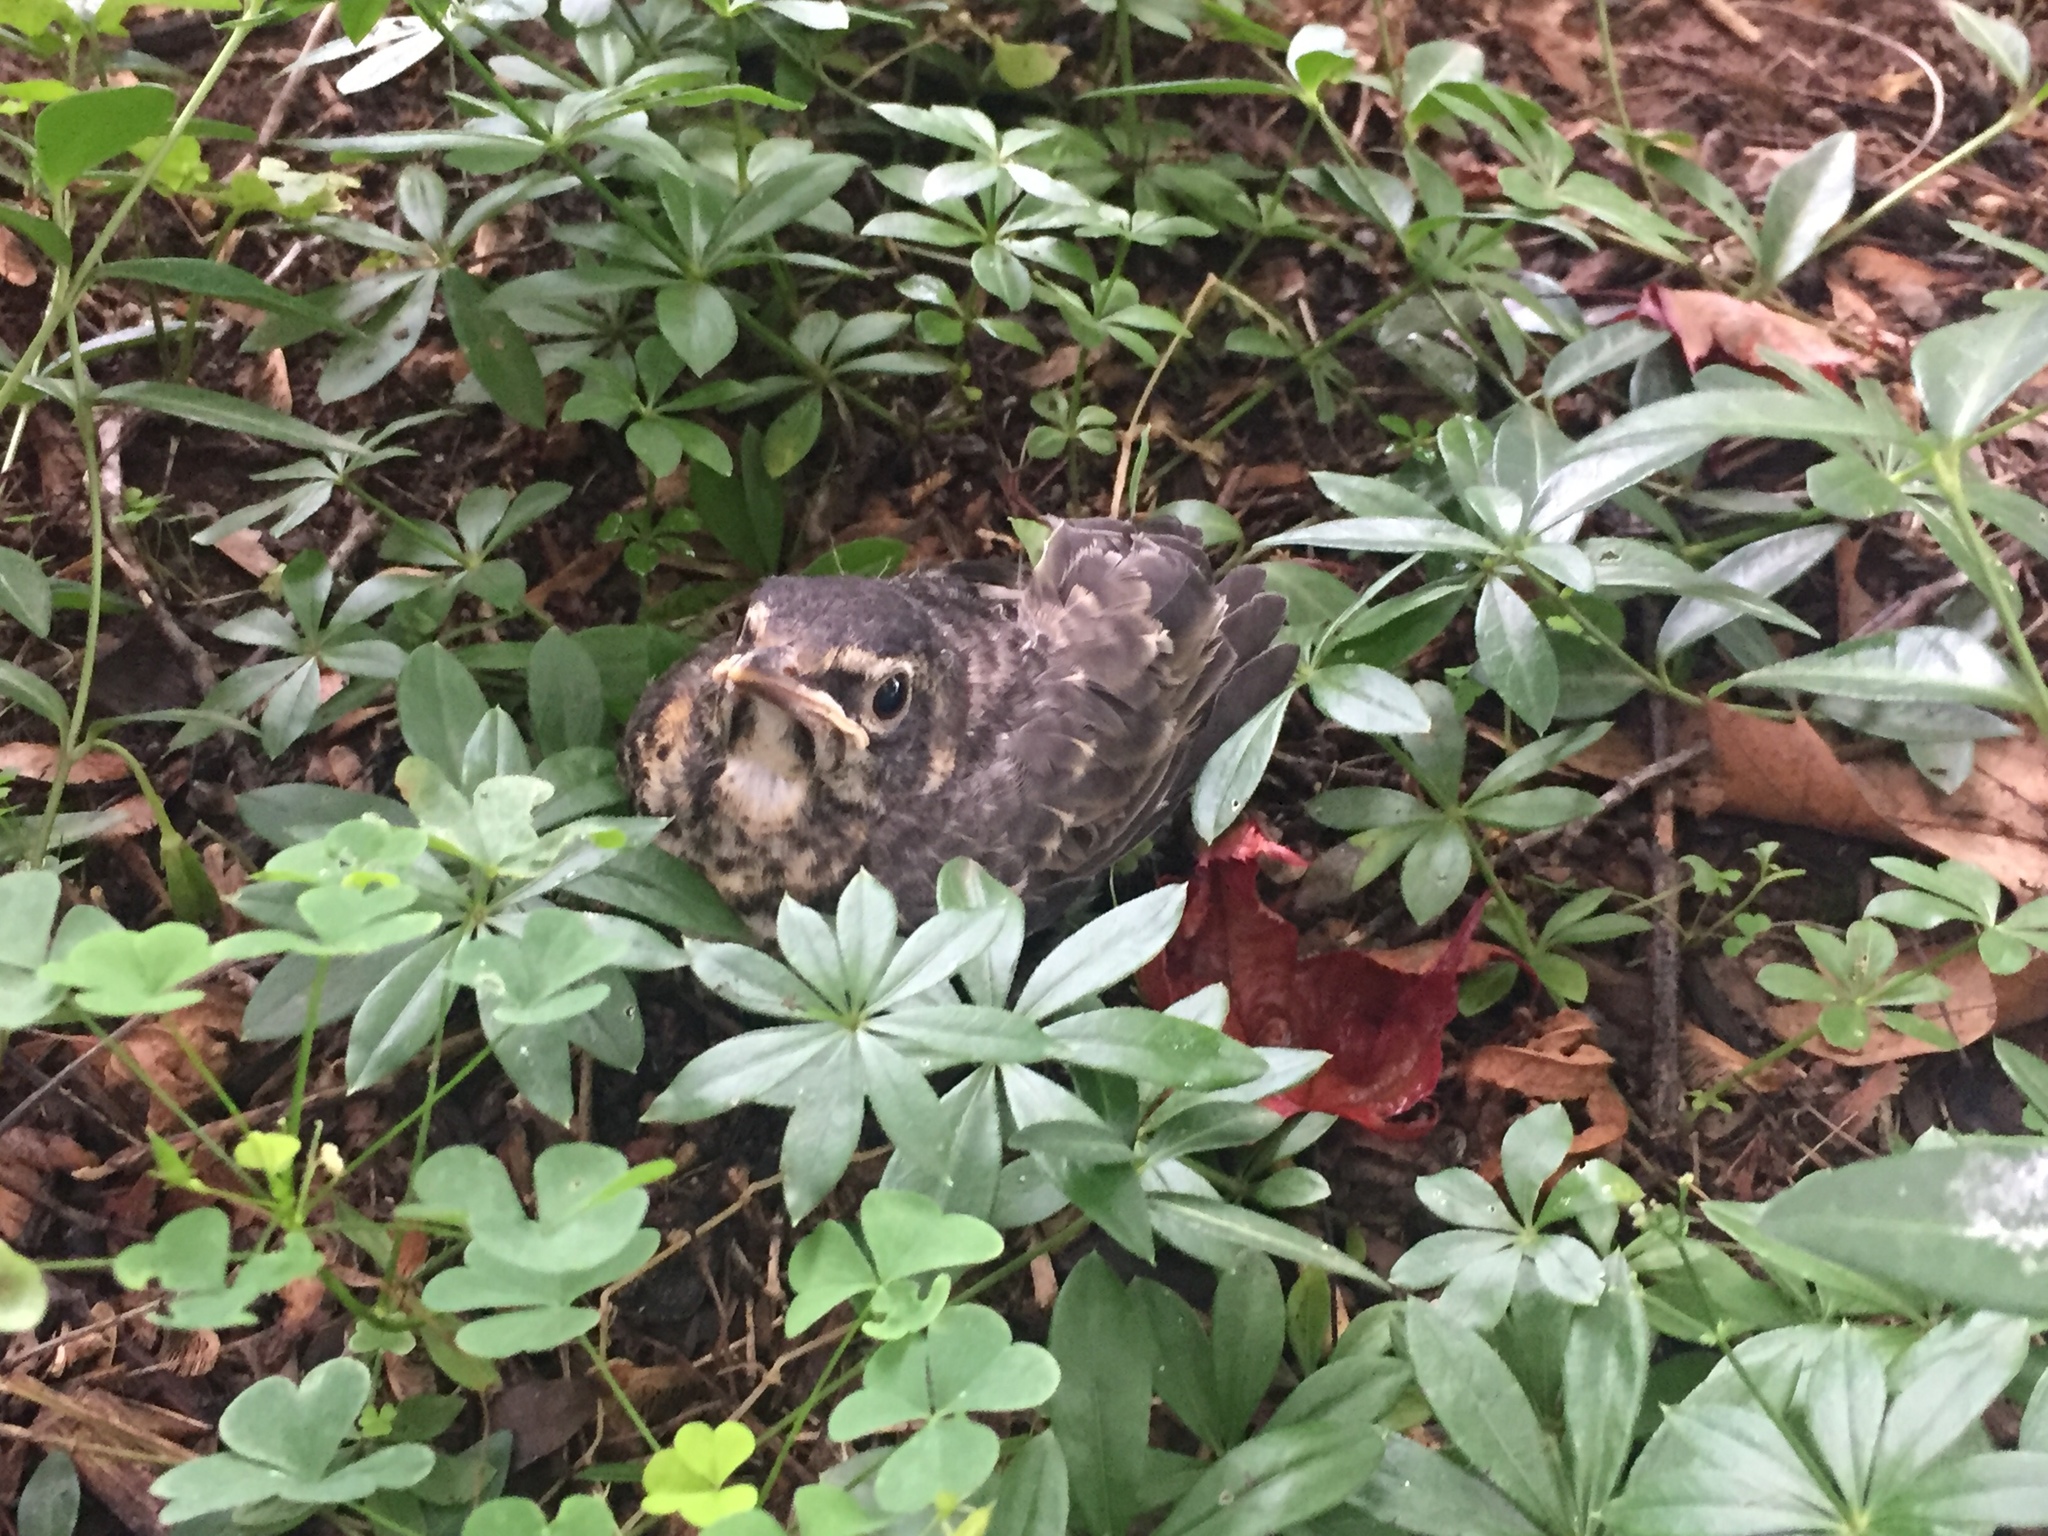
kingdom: Animalia
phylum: Chordata
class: Aves
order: Passeriformes
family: Turdidae
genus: Turdus
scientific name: Turdus migratorius
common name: American robin
